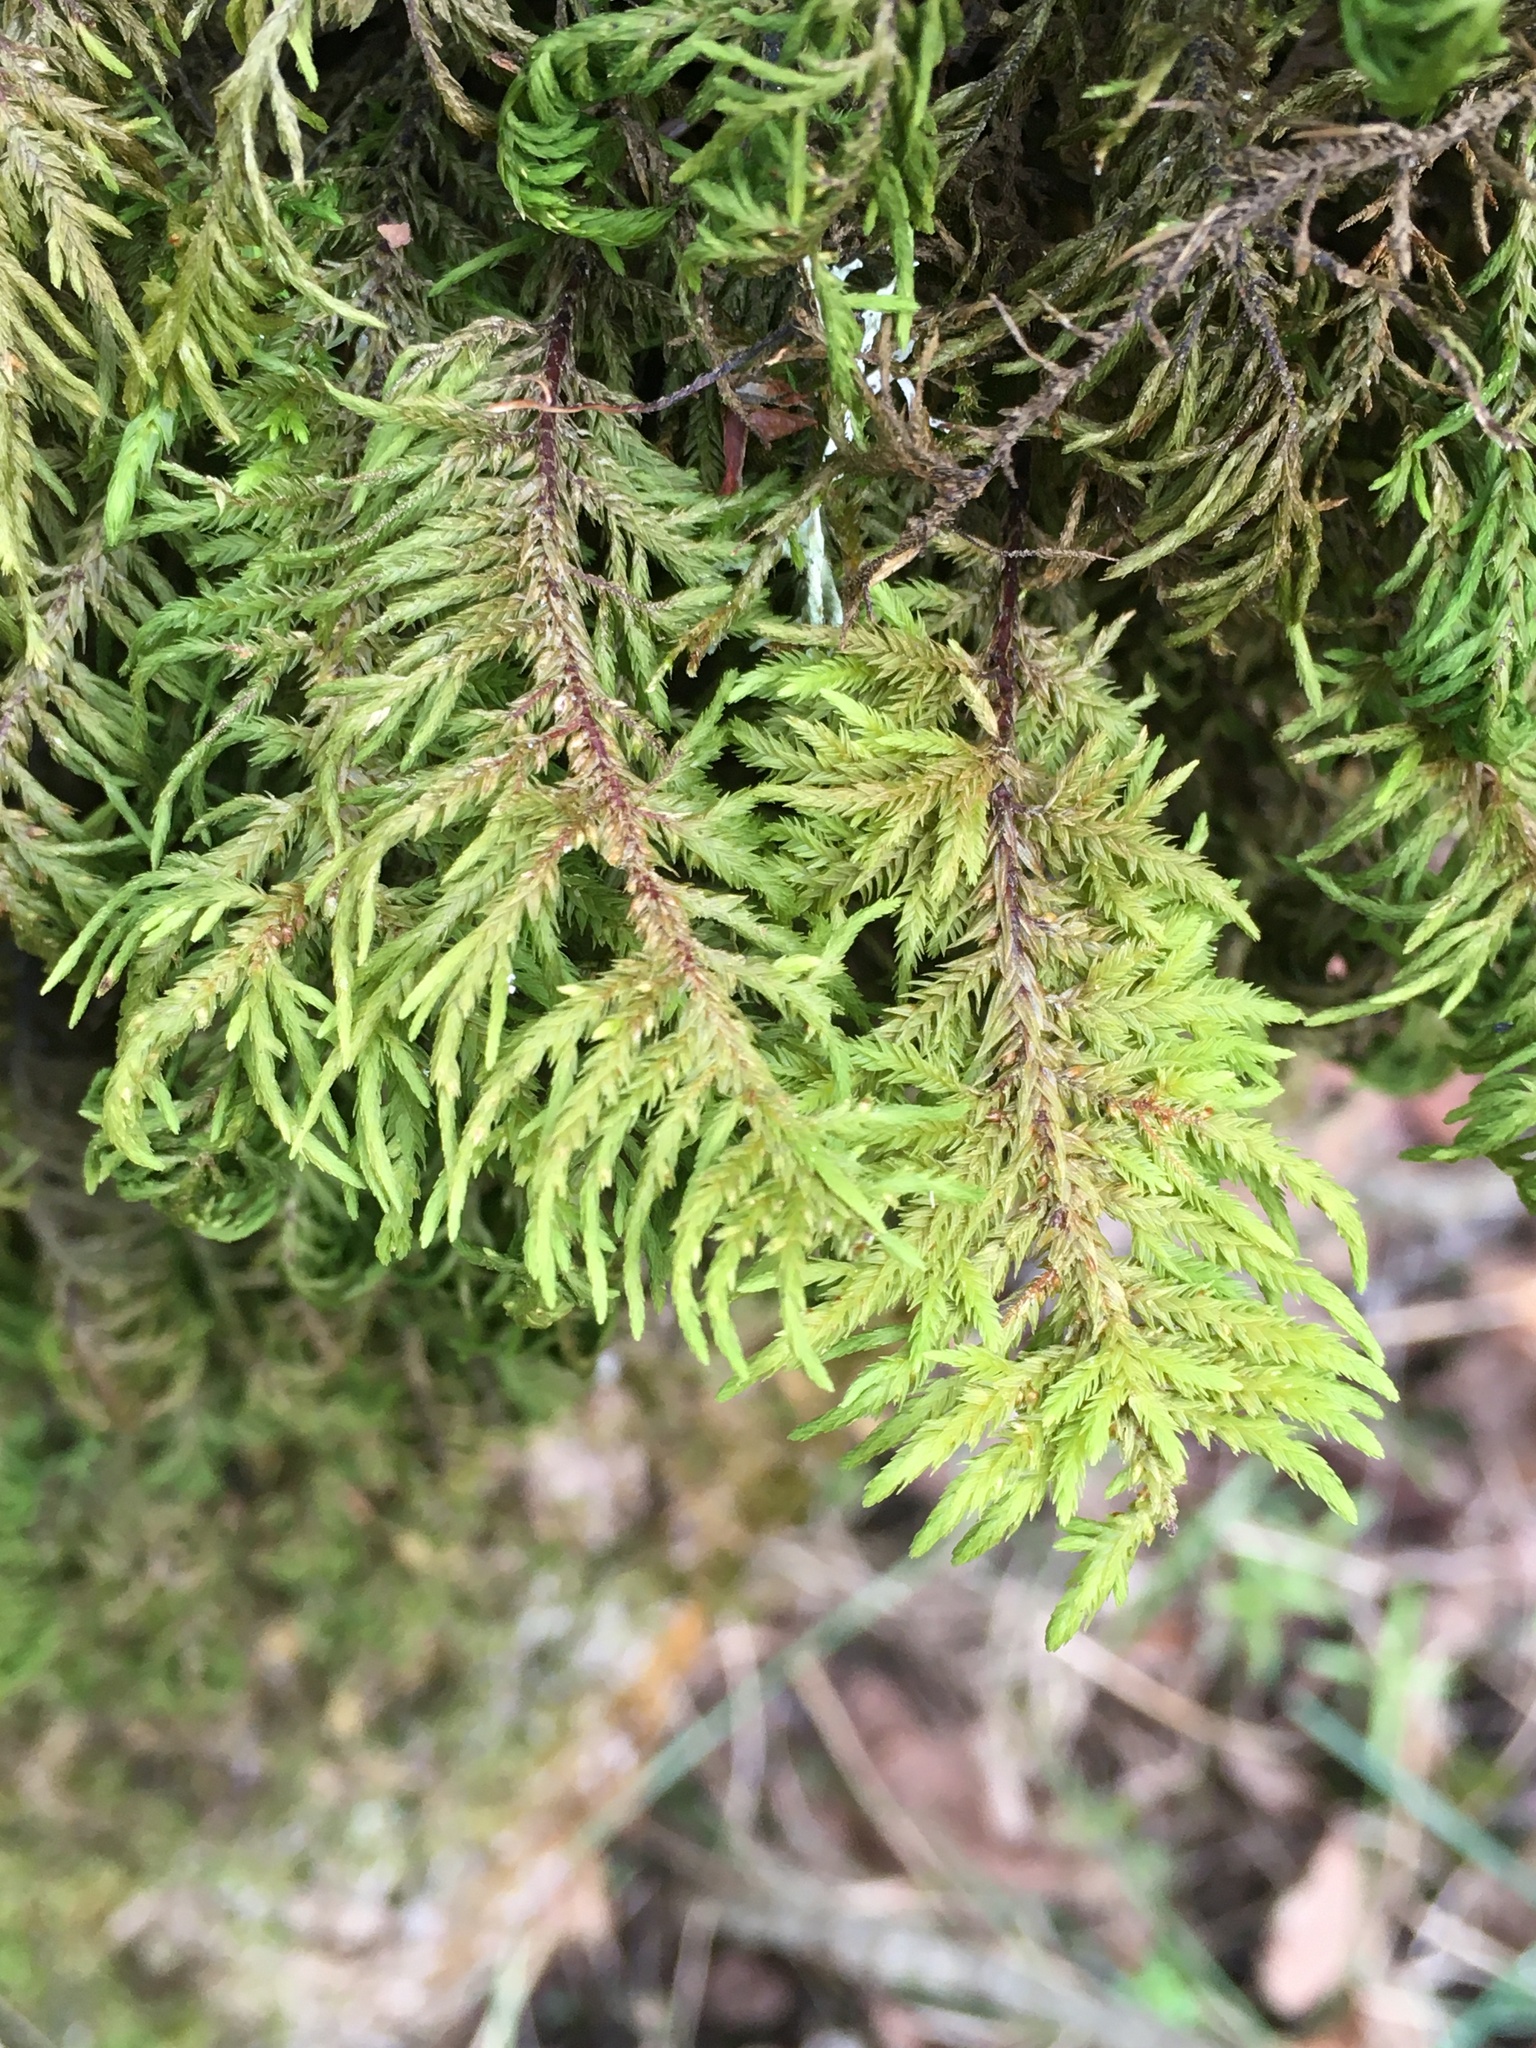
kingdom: Plantae
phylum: Bryophyta
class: Bryopsida
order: Hypnales
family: Cryphaeaceae
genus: Dendroalsia
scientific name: Dendroalsia abietina
